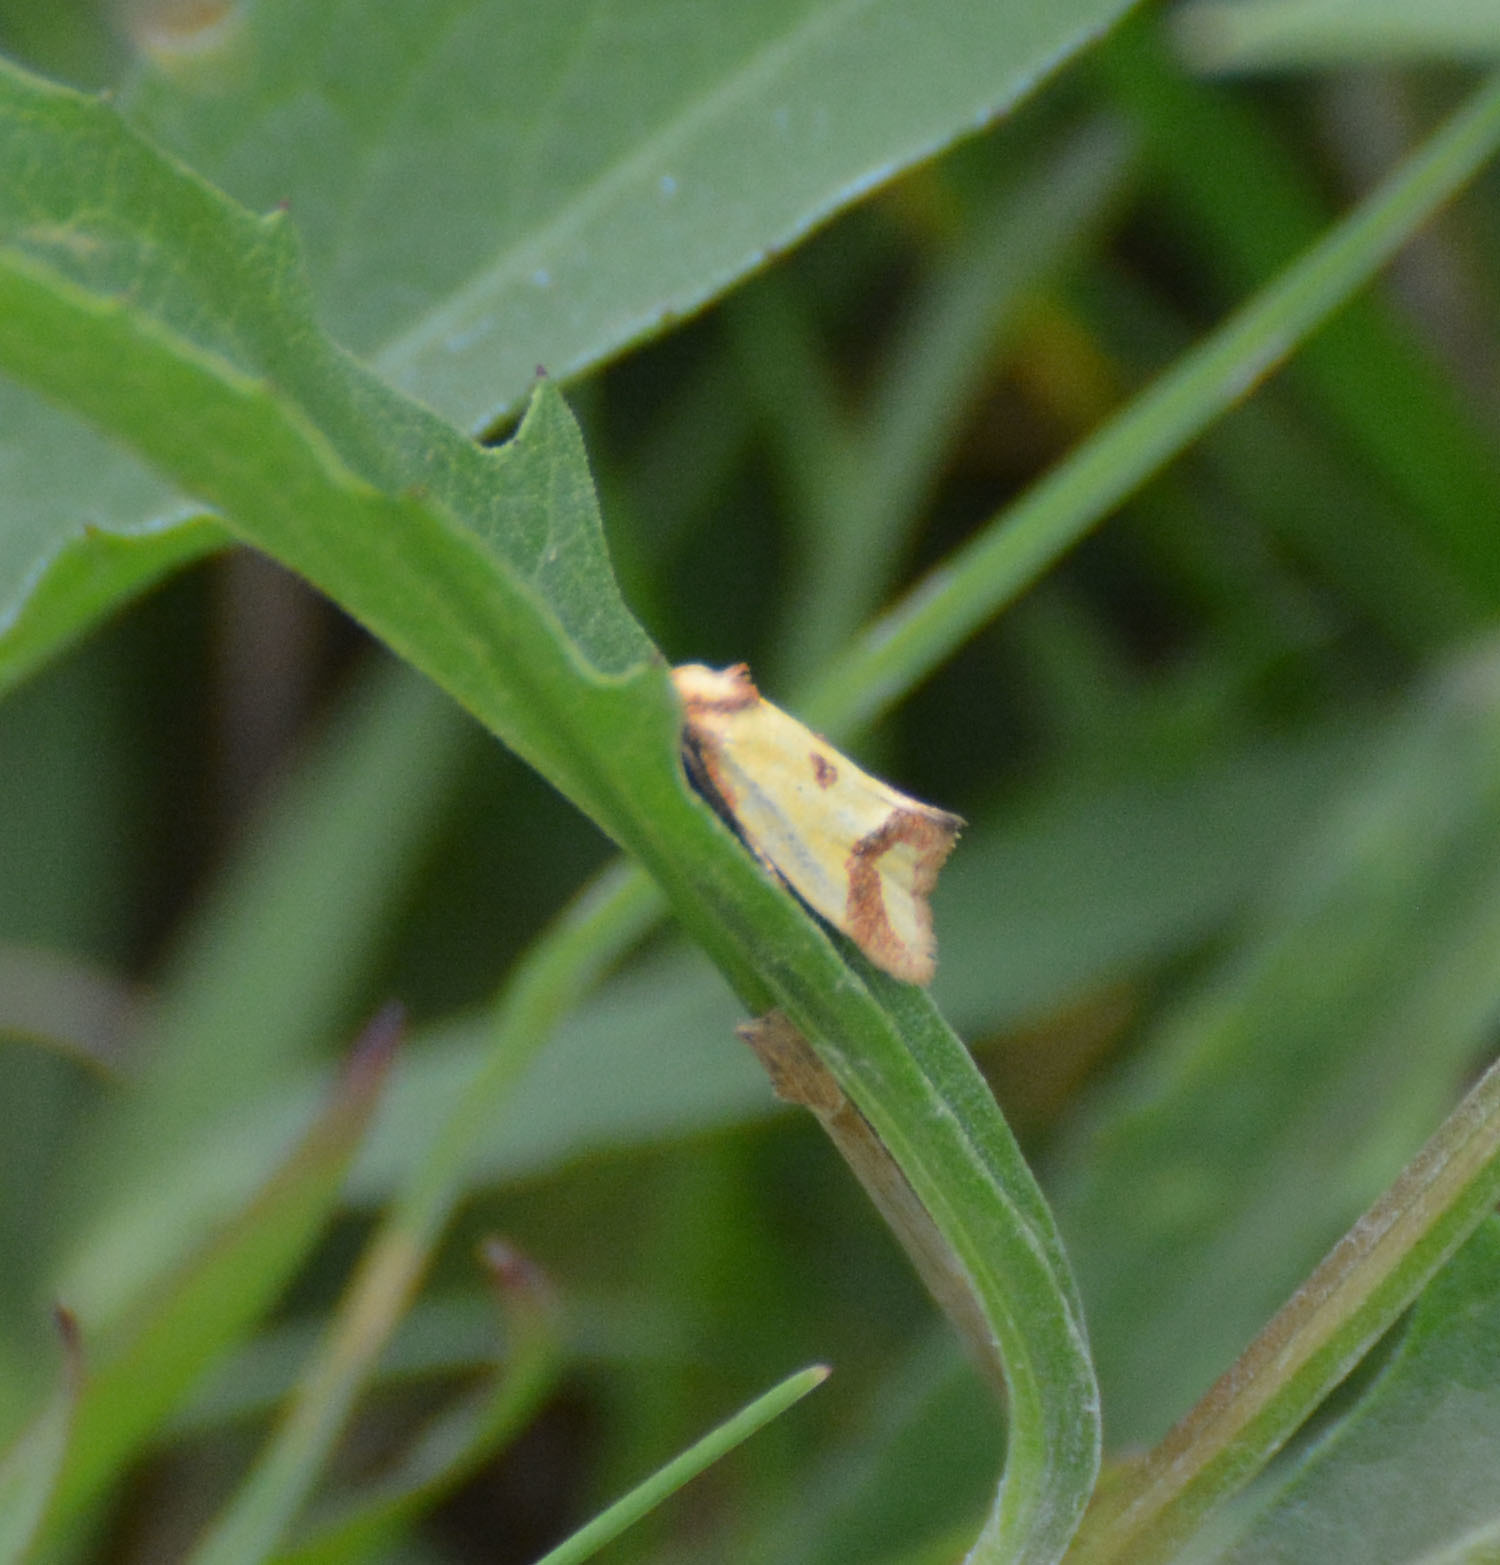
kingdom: Animalia
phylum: Arthropoda
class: Insecta
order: Lepidoptera
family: Tortricidae
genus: Agapeta
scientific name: Agapeta zoegana
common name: Sulfur knapweed root moth
